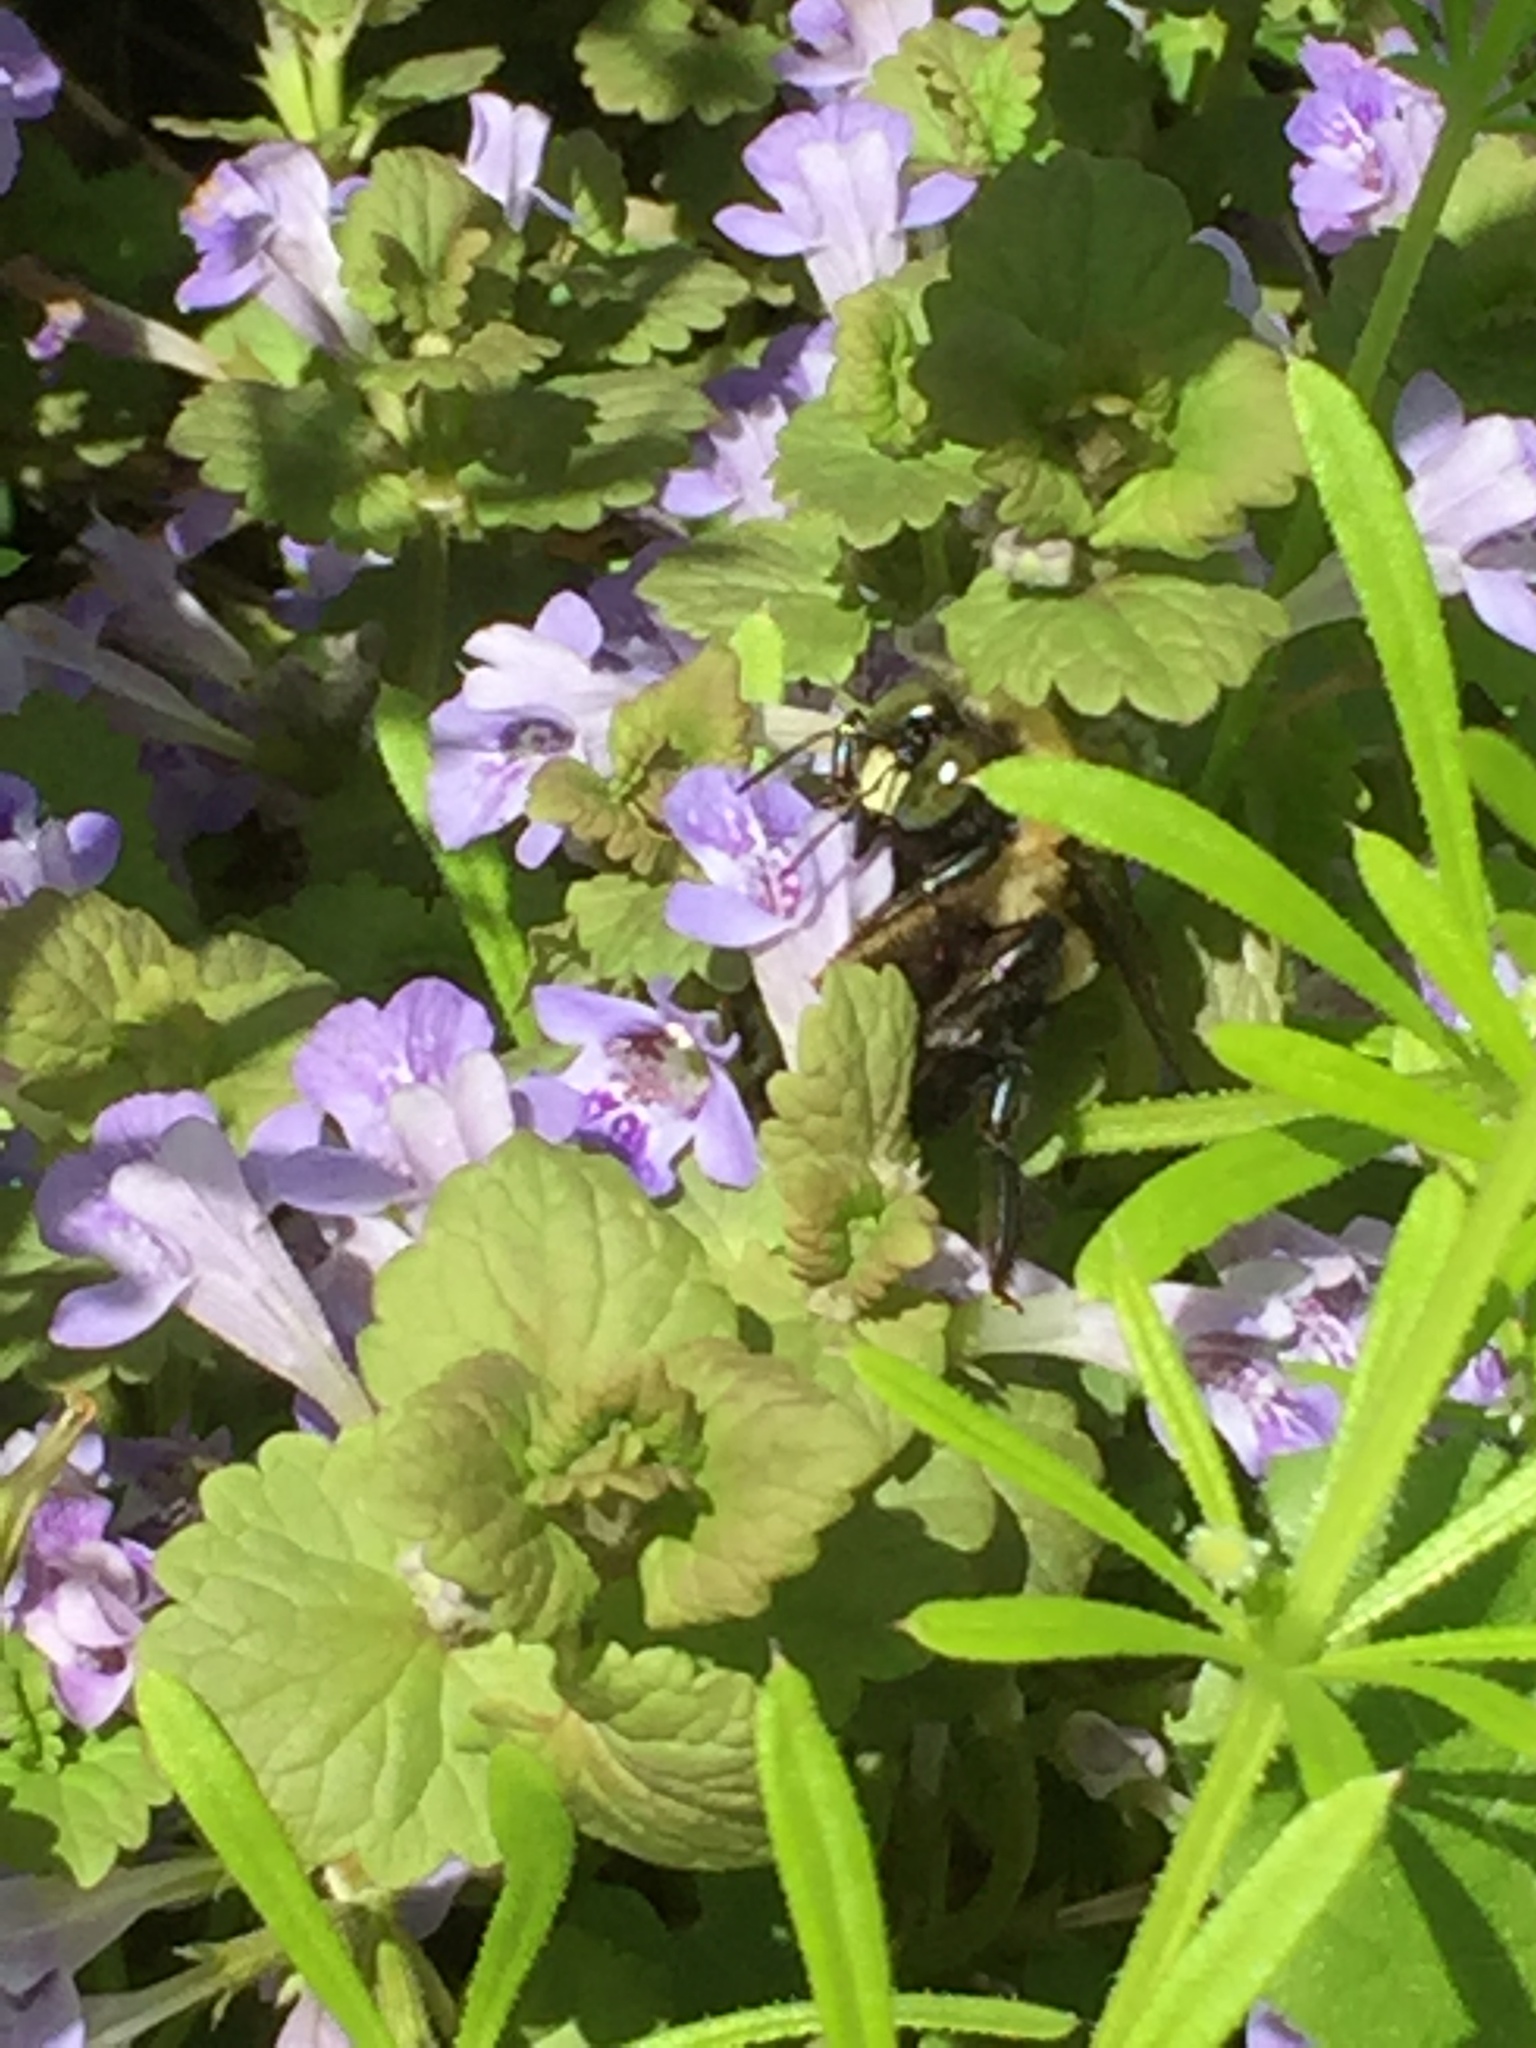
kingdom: Animalia
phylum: Arthropoda
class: Insecta
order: Hymenoptera
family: Apidae
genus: Xylocopa
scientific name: Xylocopa virginica
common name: Carpenter bee
